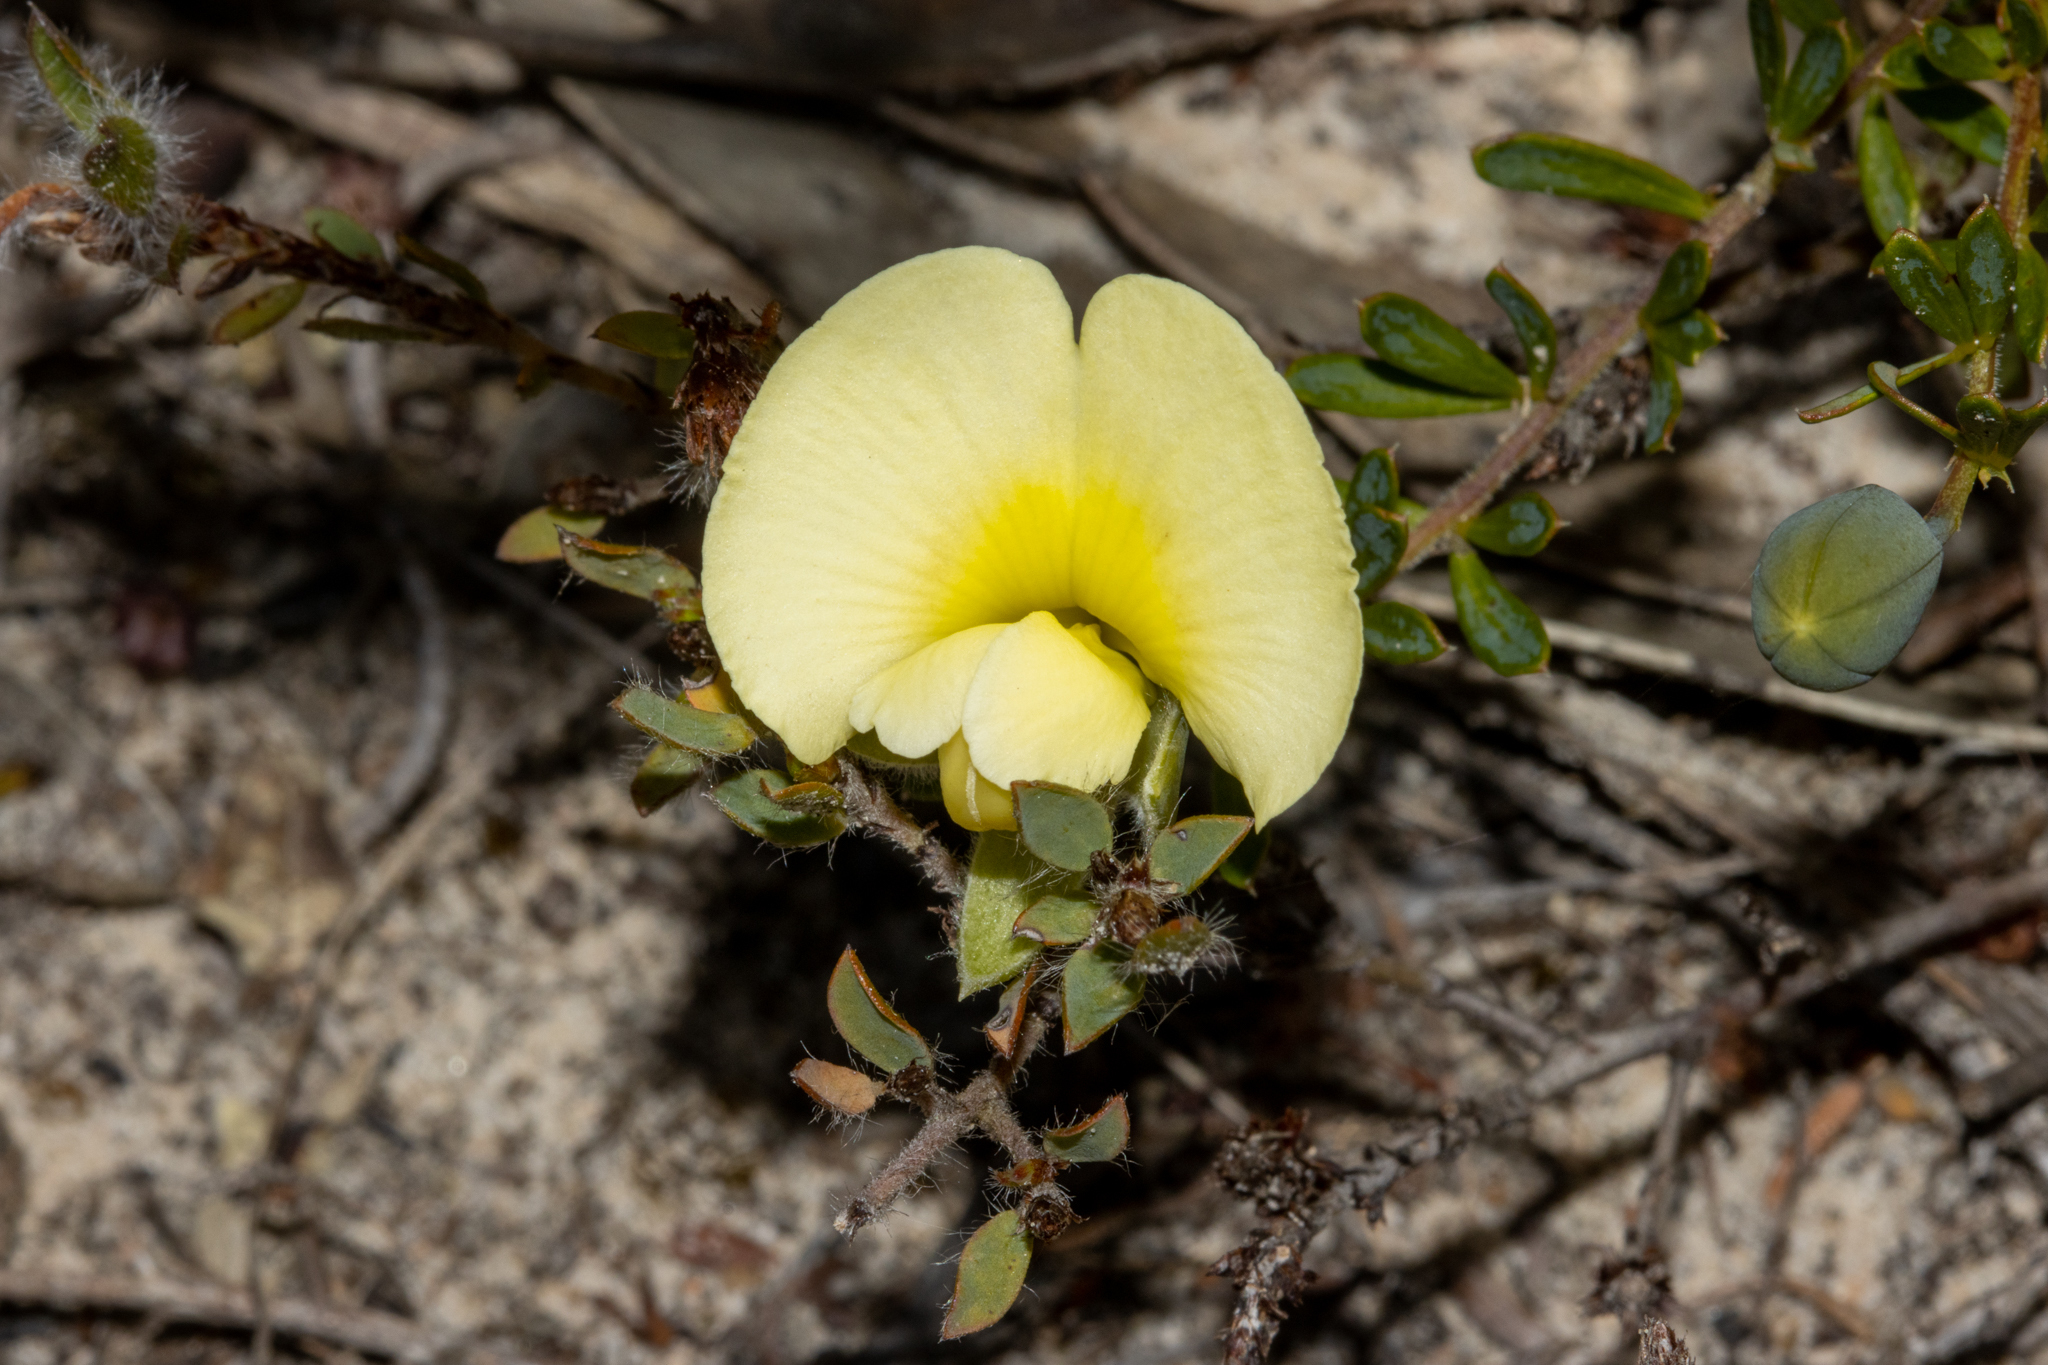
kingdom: Plantae
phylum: Tracheophyta
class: Magnoliopsida
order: Fabales
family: Fabaceae
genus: Gompholobium
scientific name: Gompholobium ecostatum
